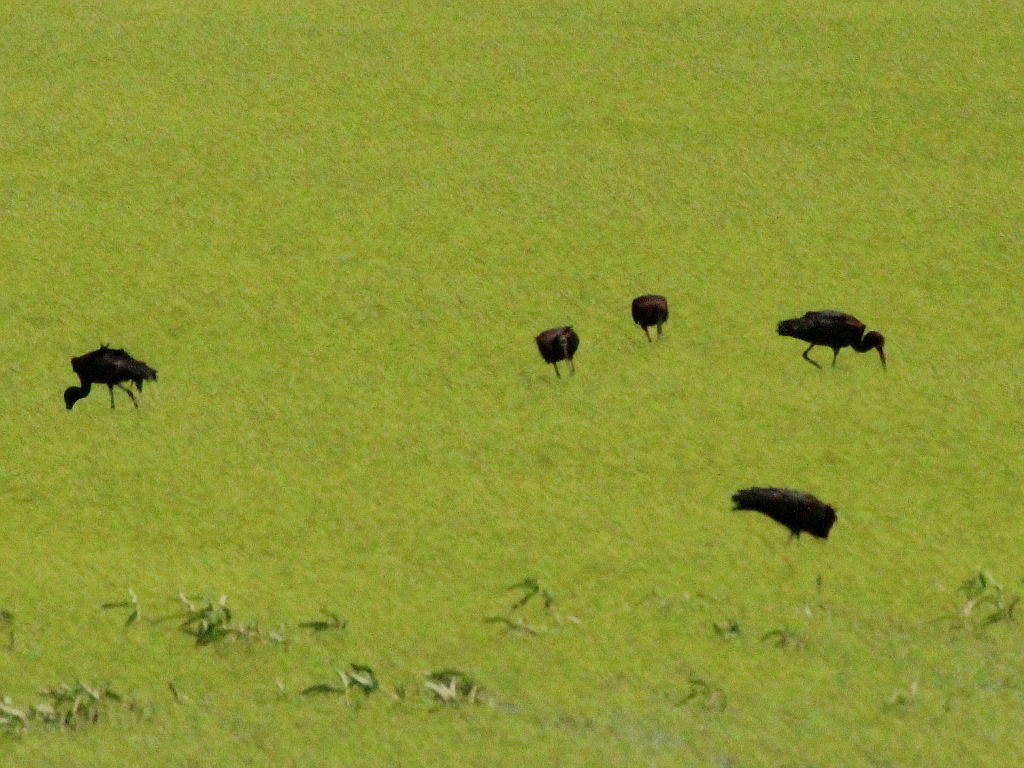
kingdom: Animalia
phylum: Chordata
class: Aves
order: Pelecaniformes
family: Threskiornithidae
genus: Plegadis
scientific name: Plegadis falcinellus
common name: Glossy ibis
